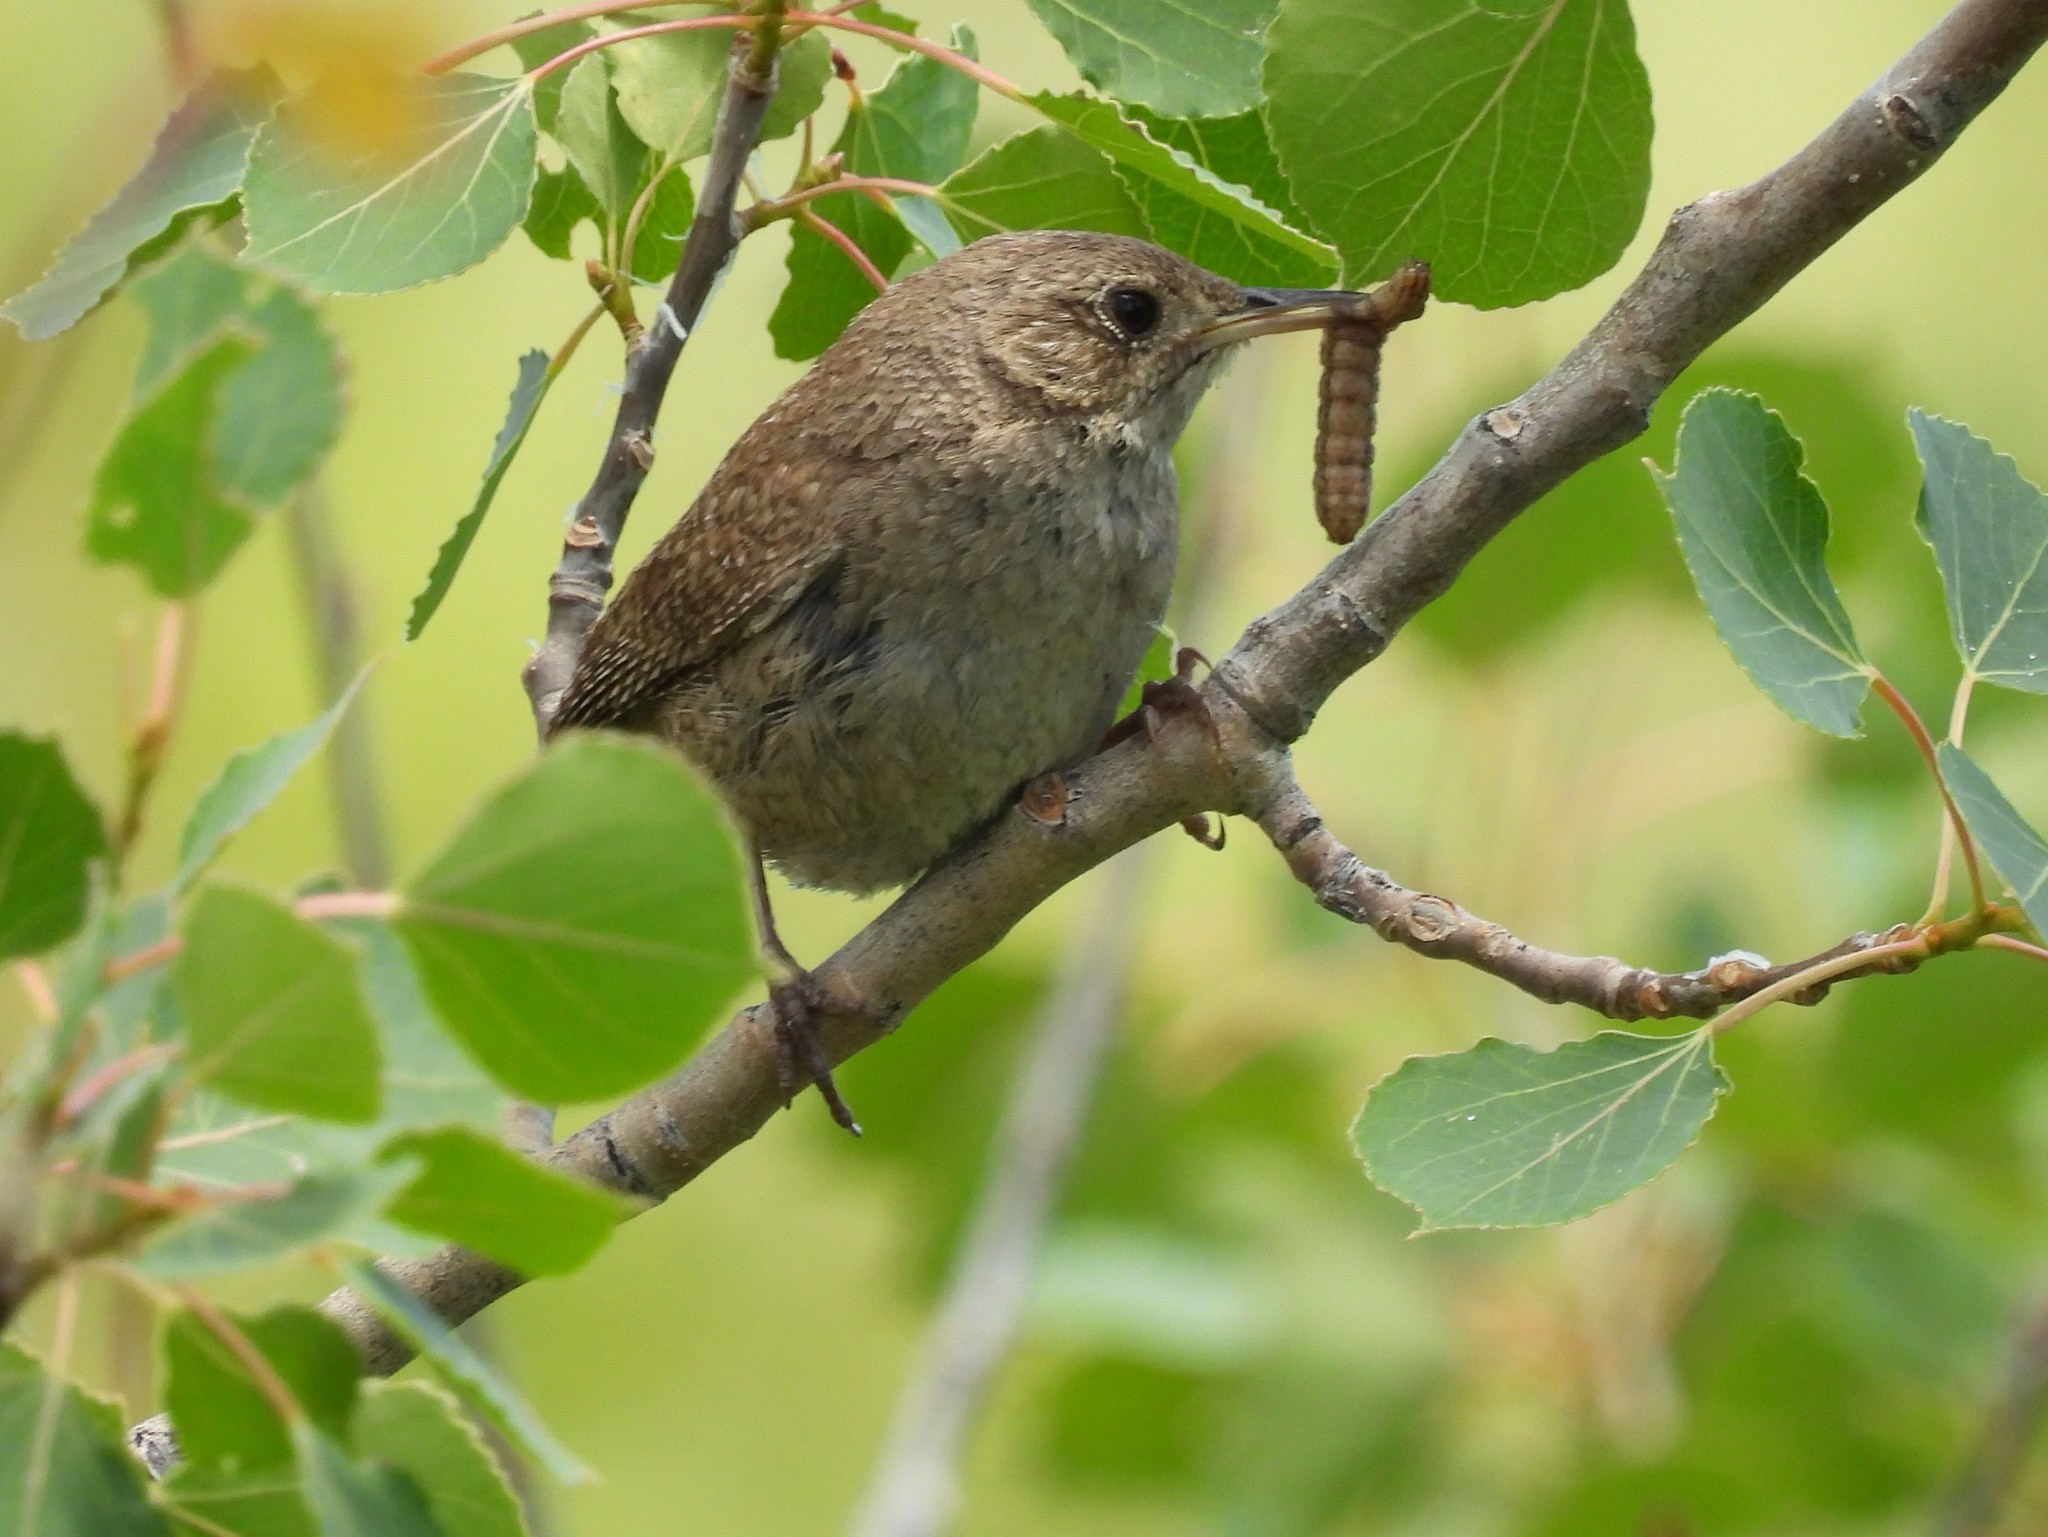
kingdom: Animalia
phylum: Chordata
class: Aves
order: Passeriformes
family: Troglodytidae
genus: Troglodytes
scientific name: Troglodytes aedon
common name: House wren
